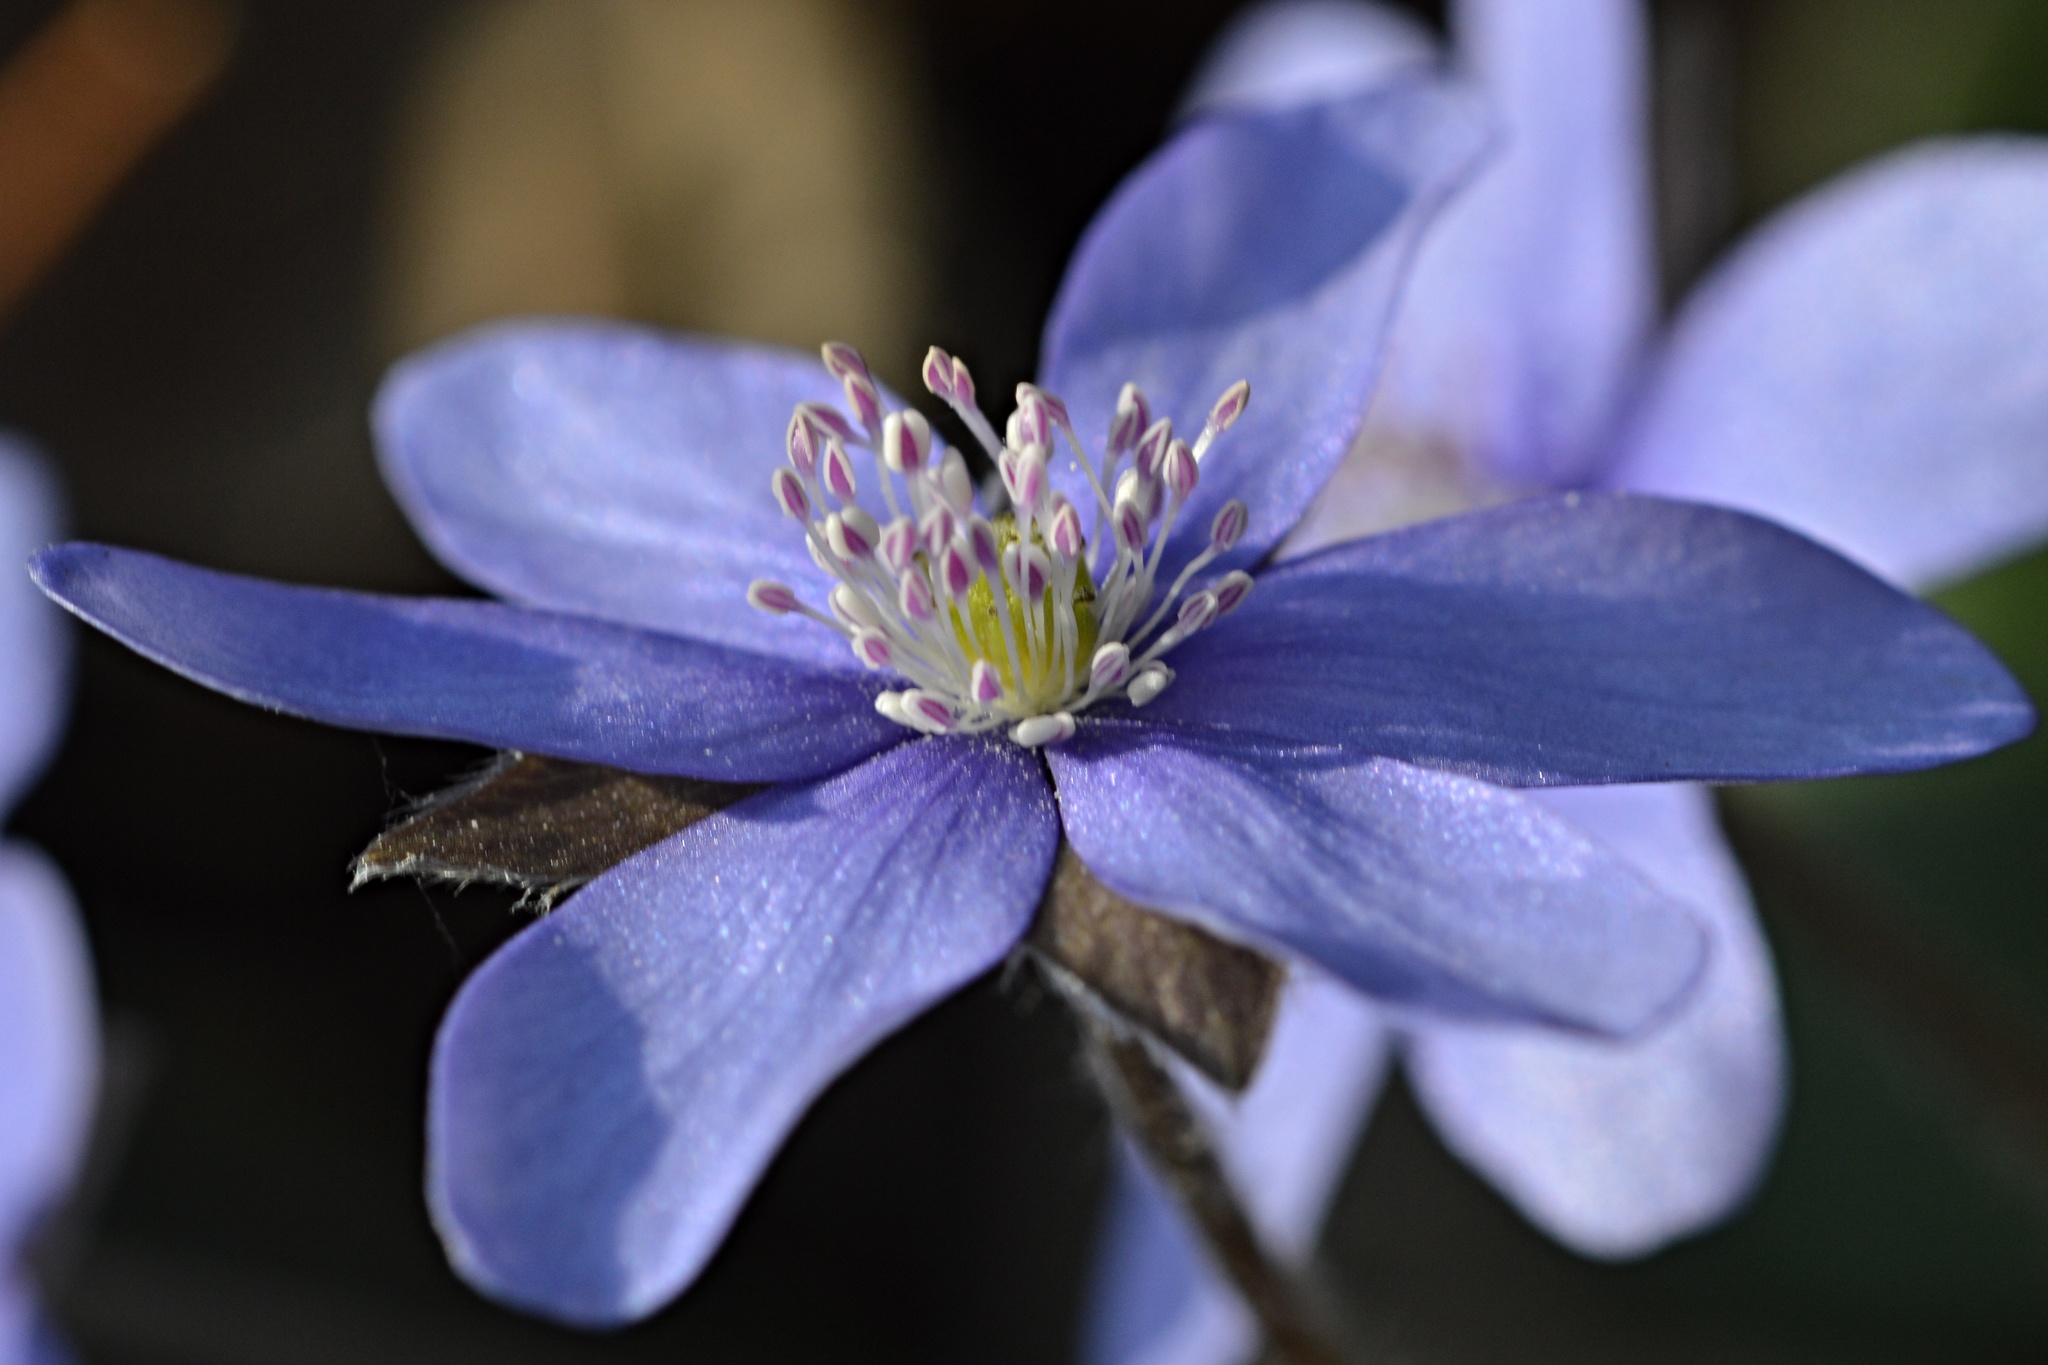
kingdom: Plantae
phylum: Tracheophyta
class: Magnoliopsida
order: Ranunculales
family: Ranunculaceae
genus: Hepatica
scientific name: Hepatica nobilis
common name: Liverleaf
